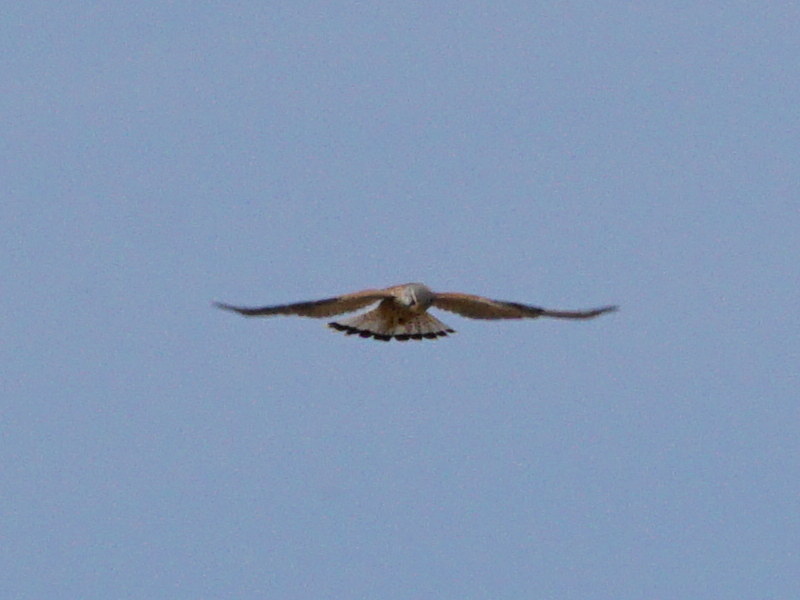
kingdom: Animalia
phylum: Chordata
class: Aves
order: Falconiformes
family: Falconidae
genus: Falco
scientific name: Falco tinnunculus
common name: Common kestrel
